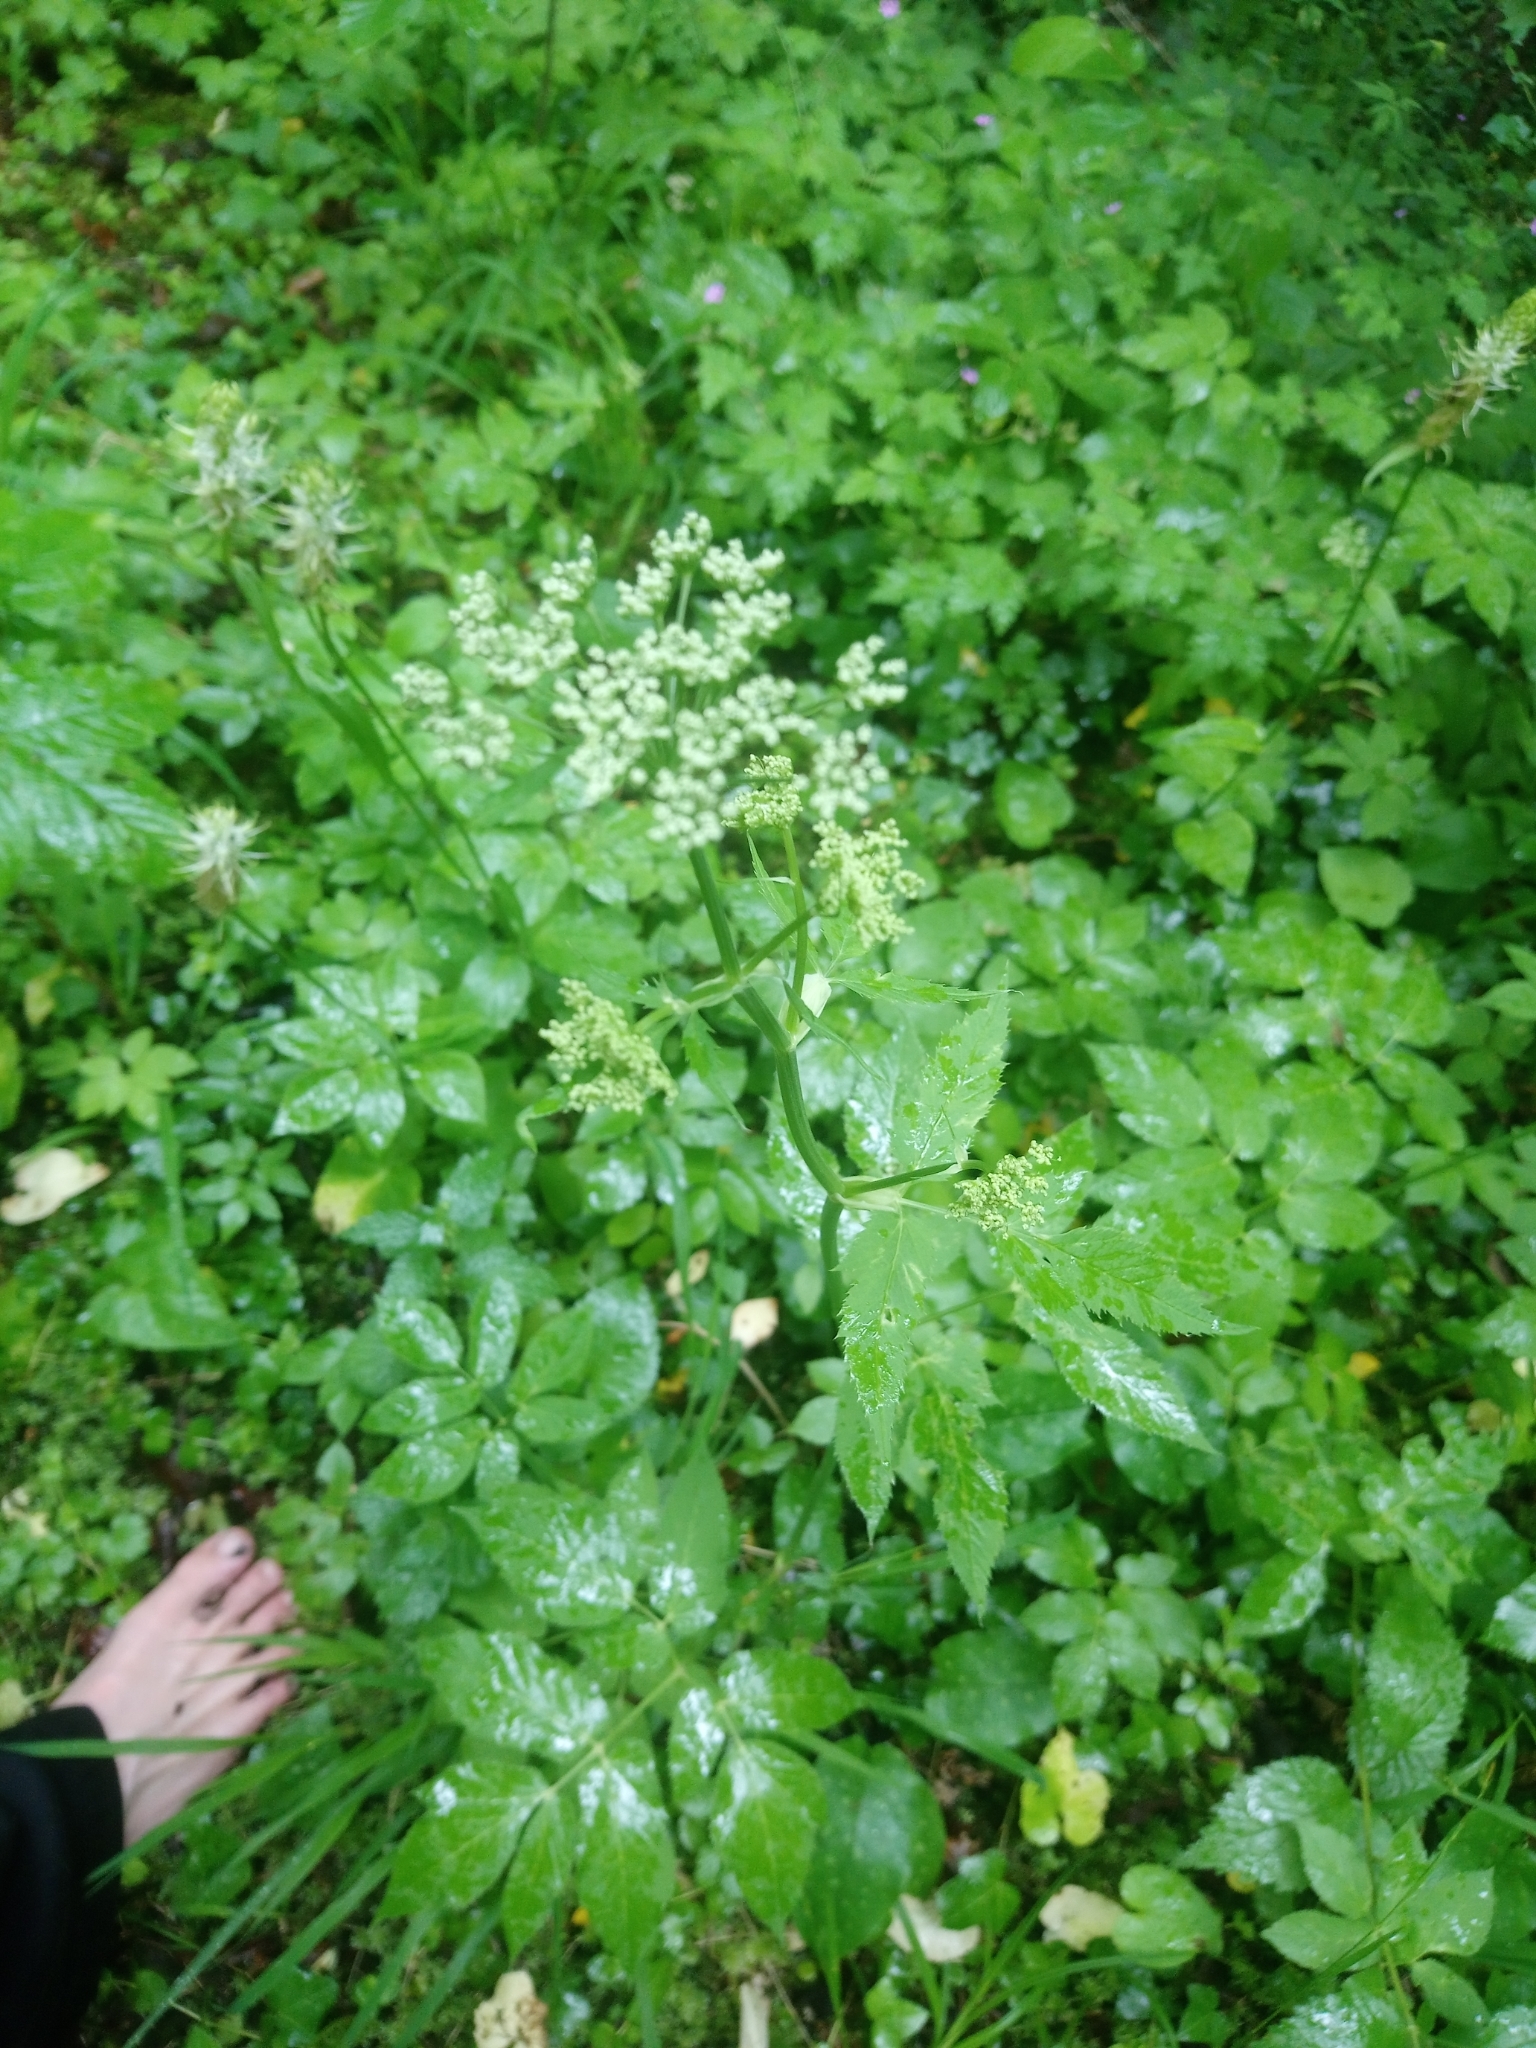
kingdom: Plantae
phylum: Tracheophyta
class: Magnoliopsida
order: Apiales
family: Apiaceae
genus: Aegopodium
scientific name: Aegopodium podagraria
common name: Ground-elder
